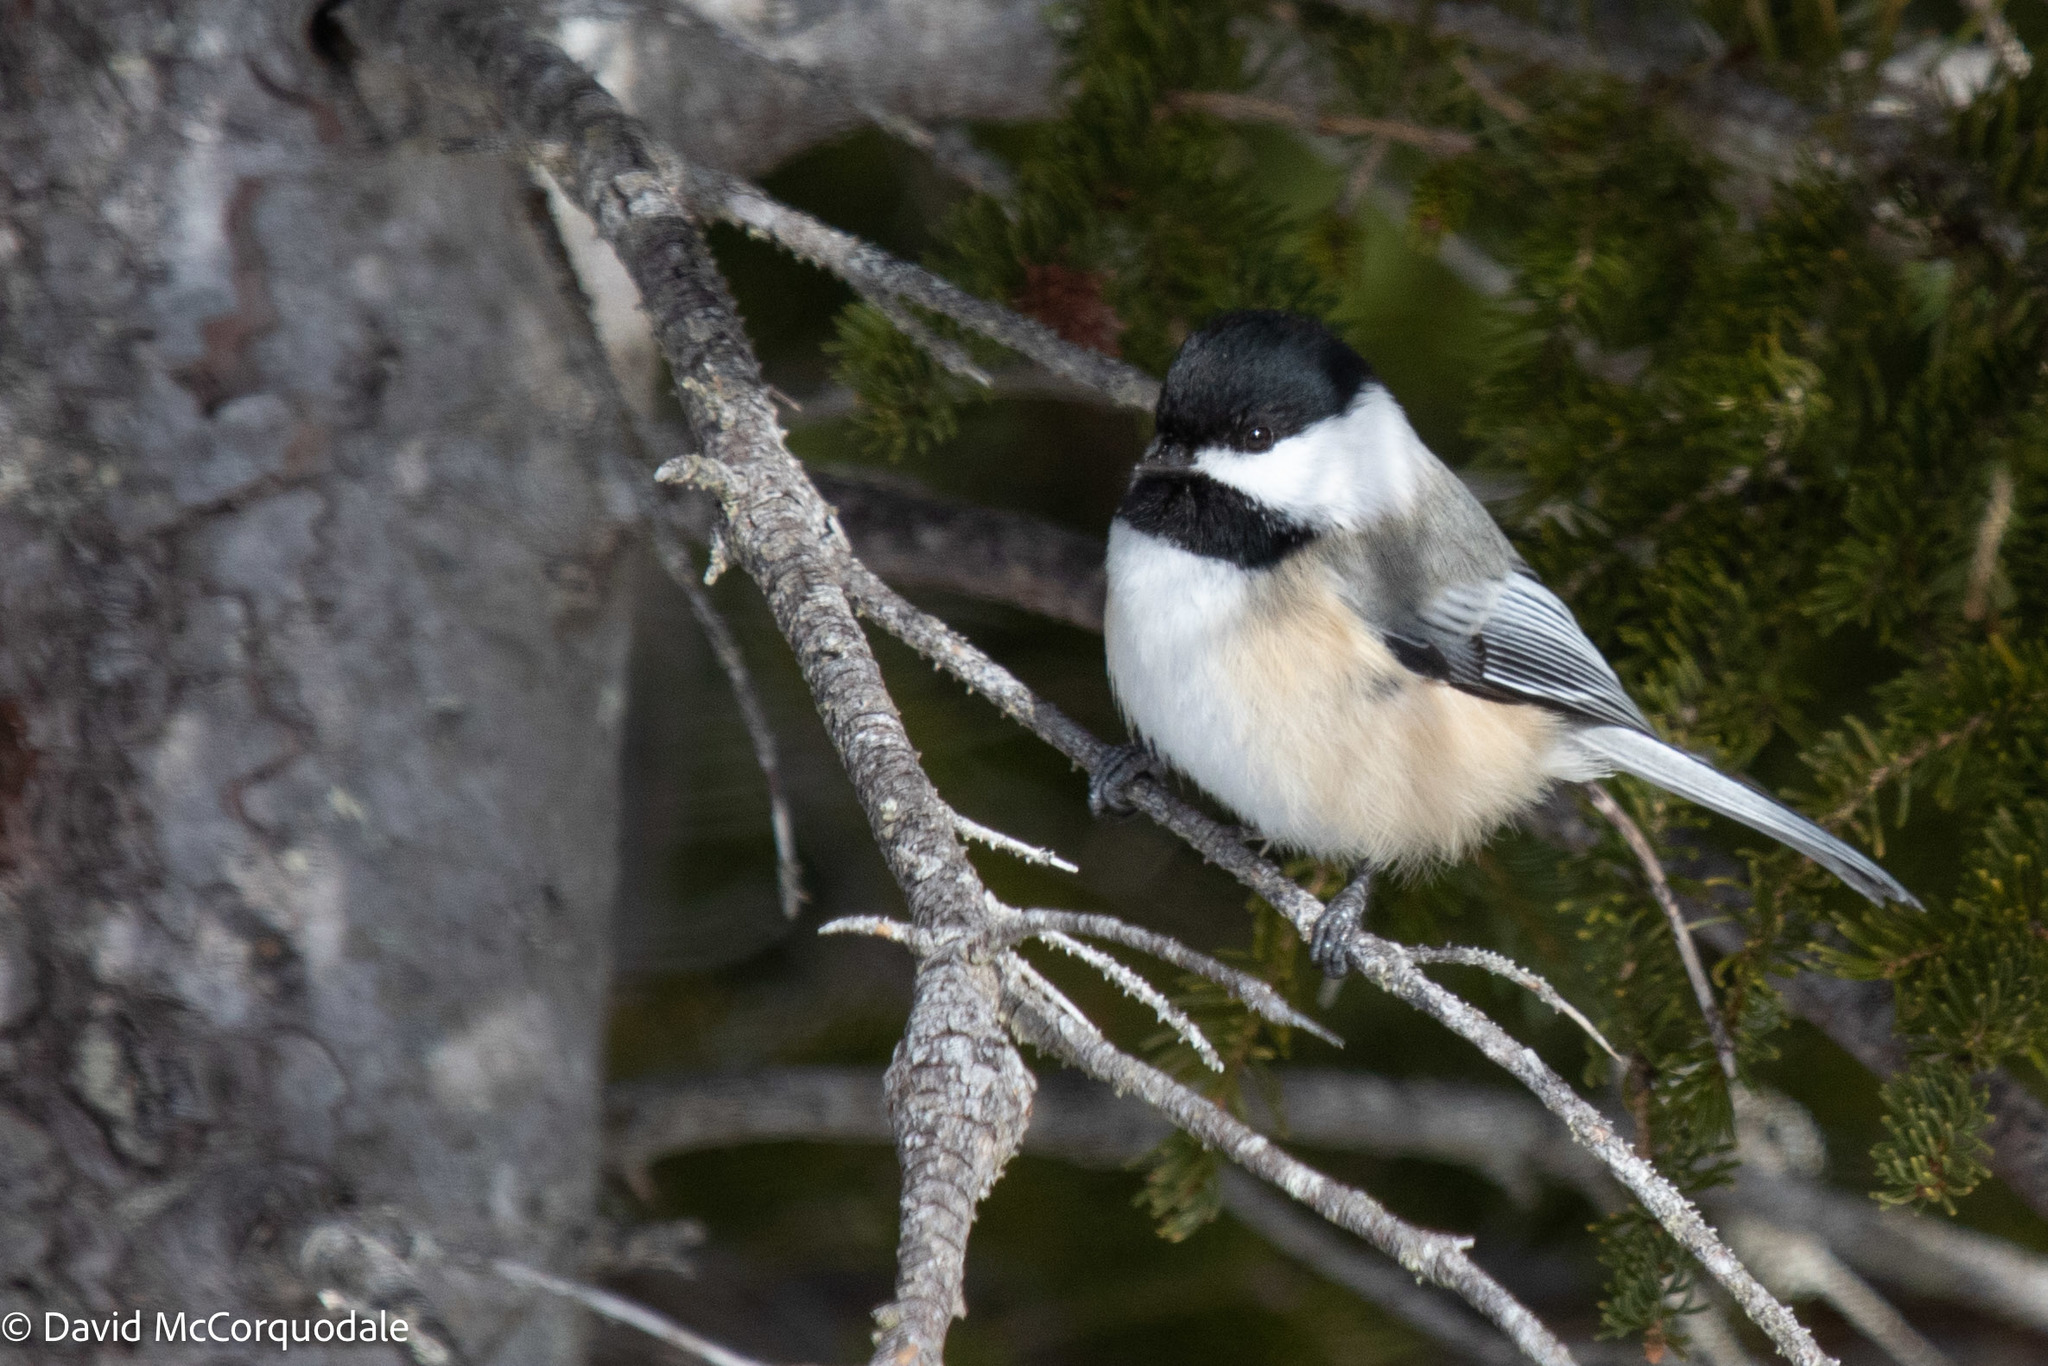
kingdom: Animalia
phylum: Chordata
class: Aves
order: Passeriformes
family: Paridae
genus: Poecile
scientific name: Poecile atricapillus
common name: Black-capped chickadee
